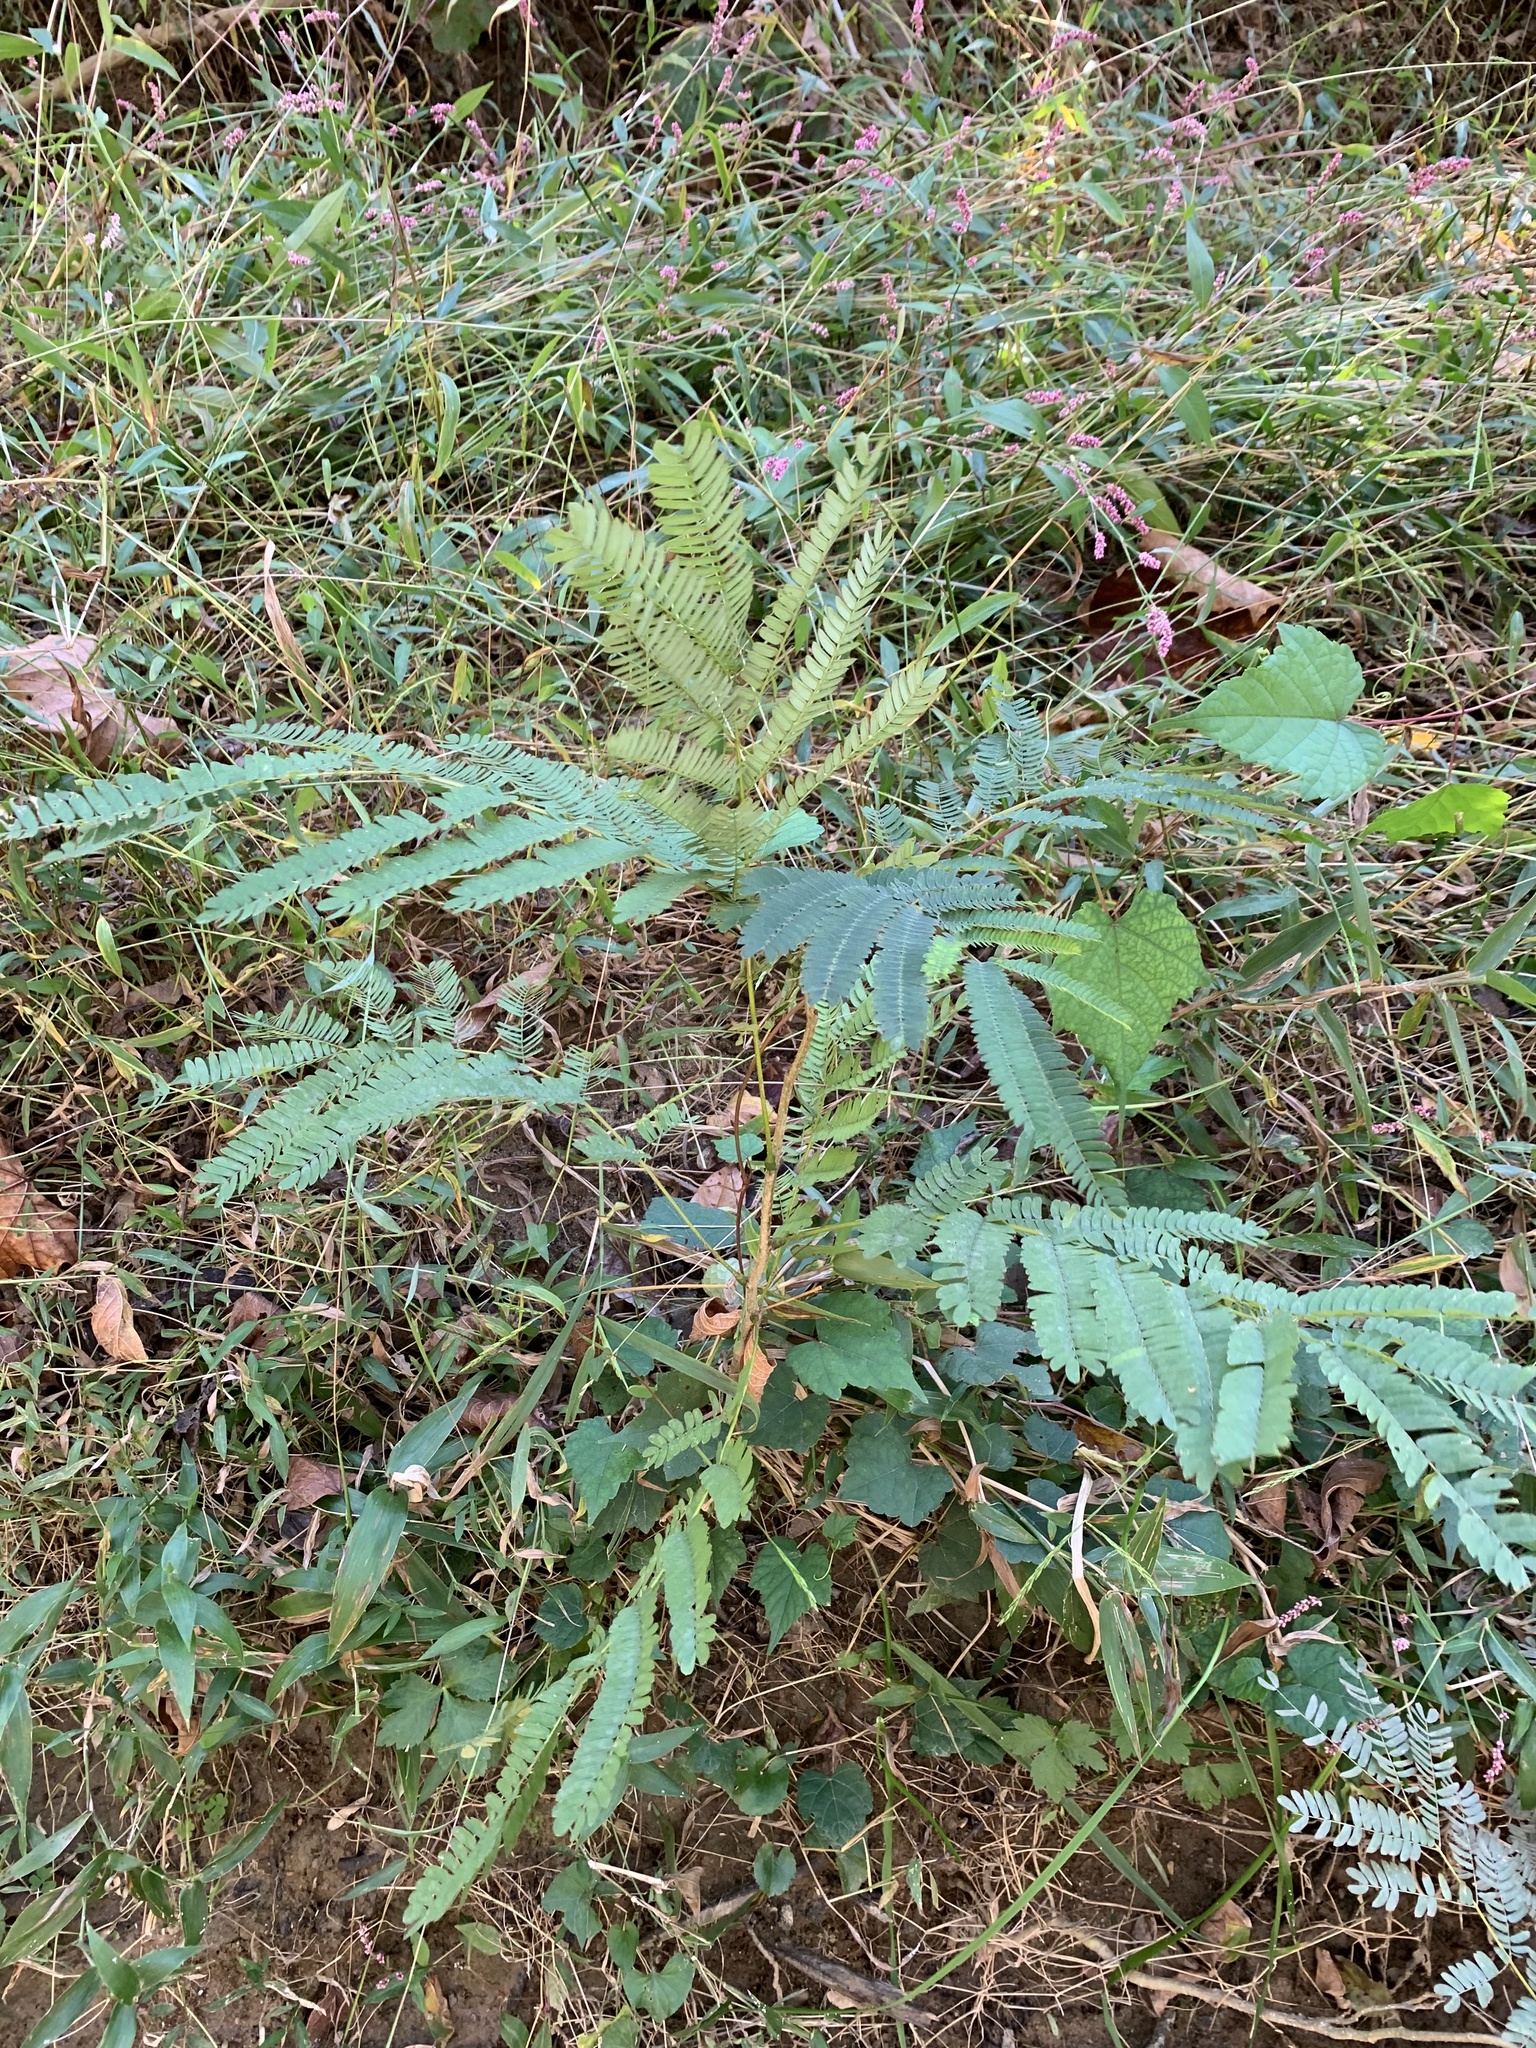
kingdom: Plantae
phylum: Tracheophyta
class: Magnoliopsida
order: Fabales
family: Fabaceae
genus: Albizia
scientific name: Albizia julibrissin
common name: Silktree
